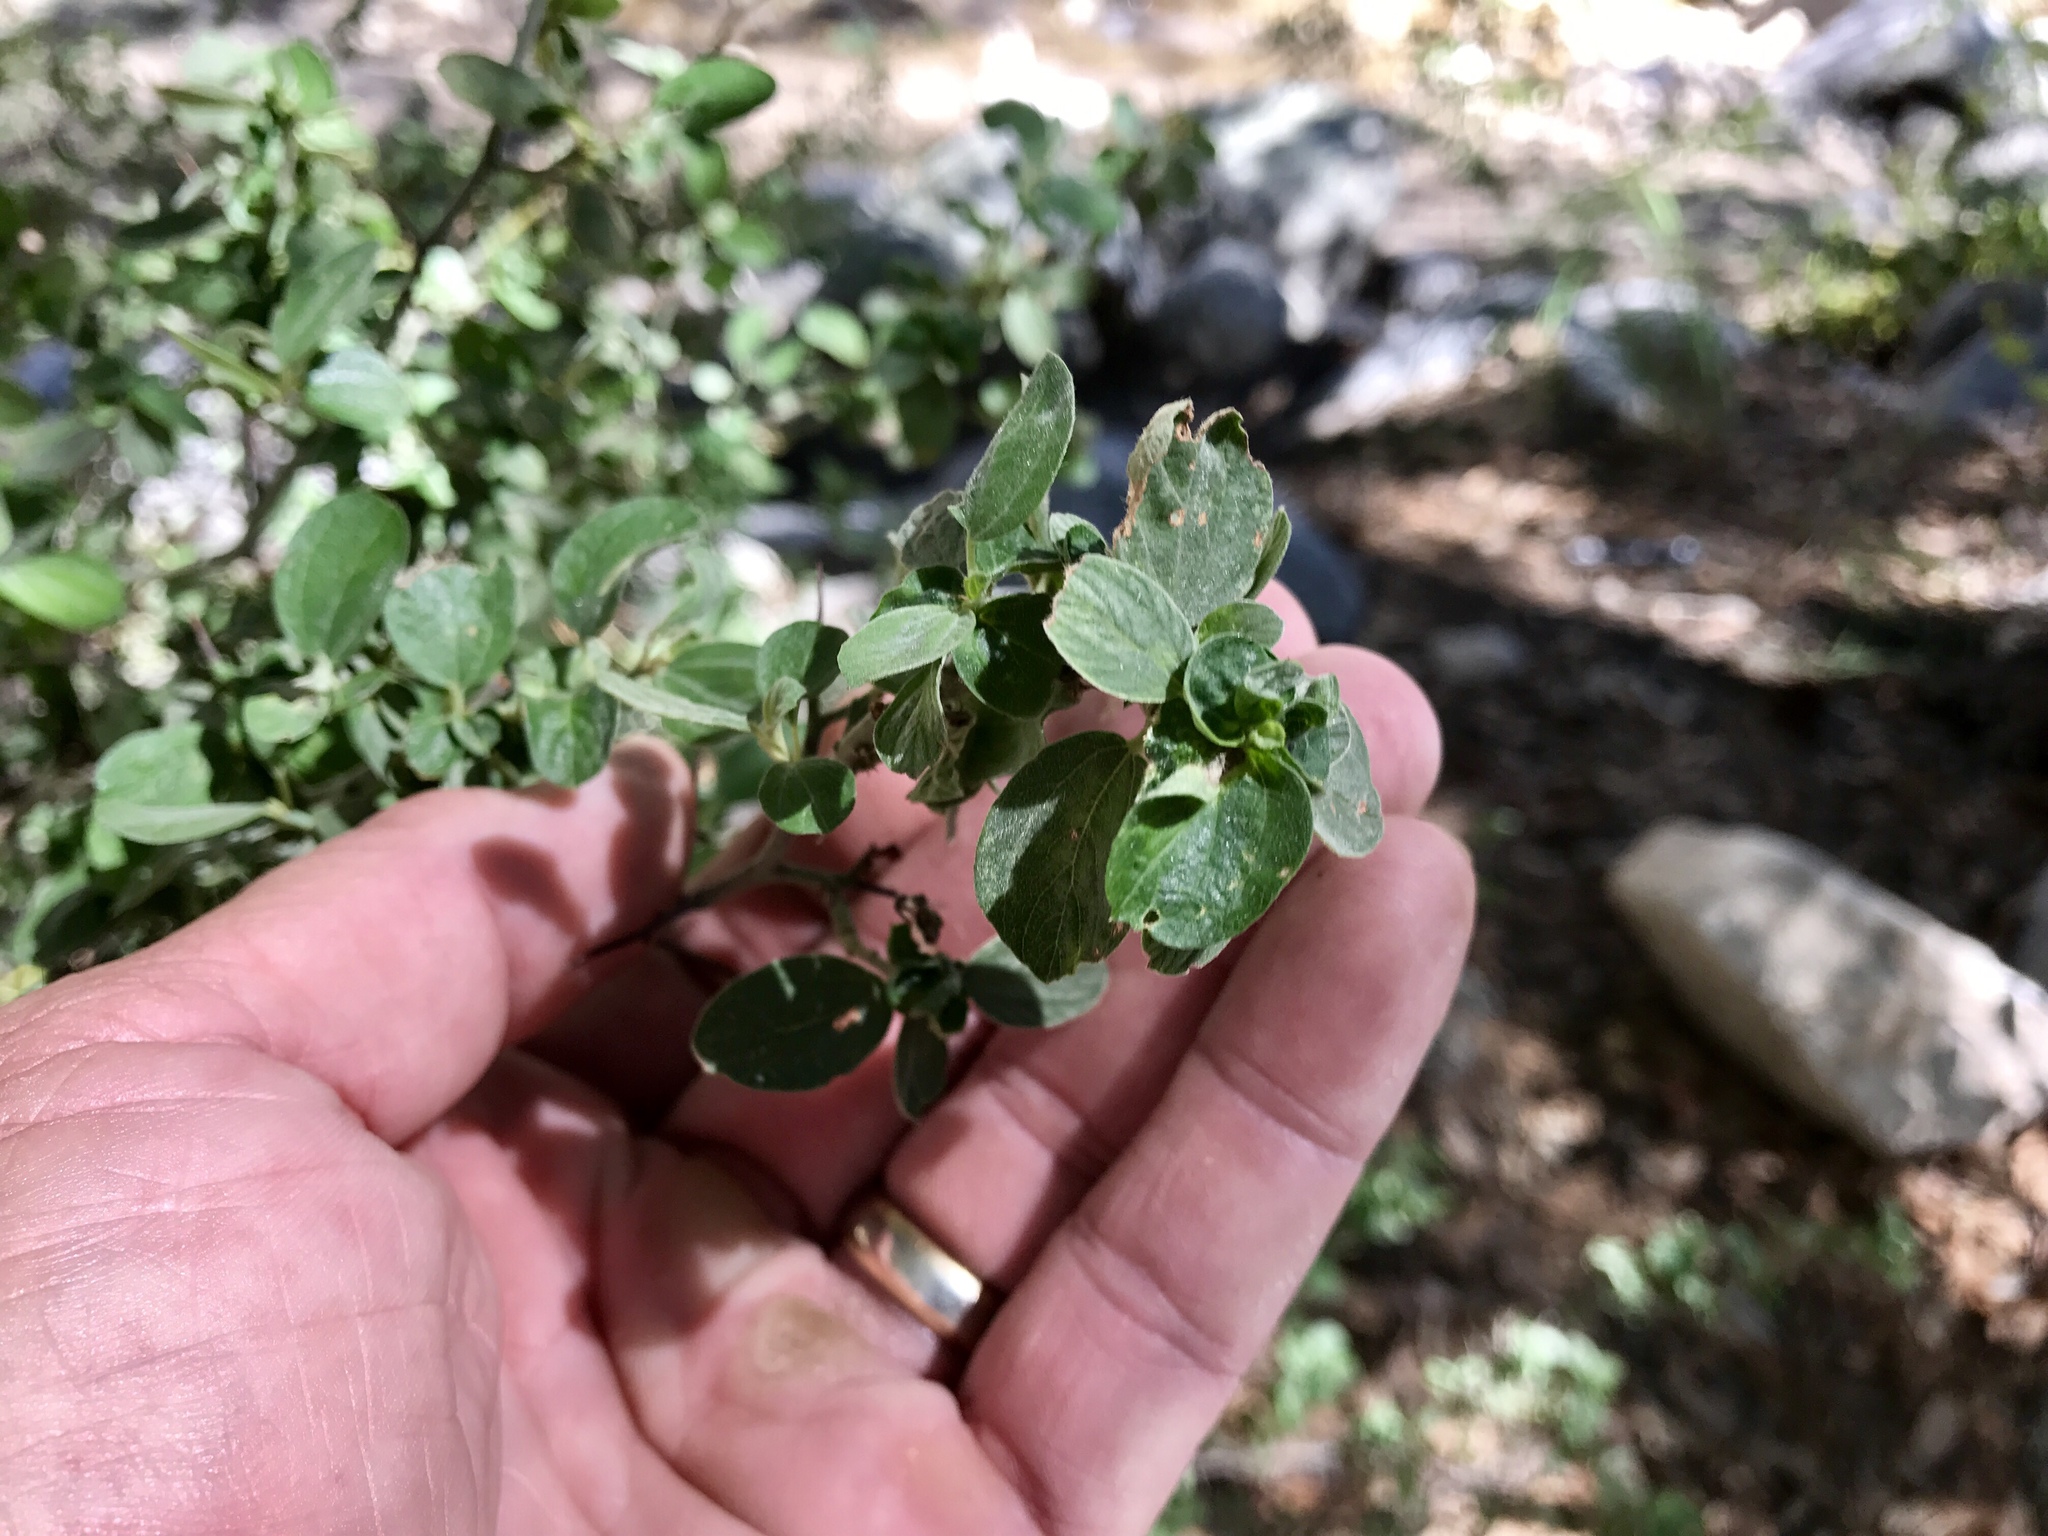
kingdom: Plantae
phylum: Tracheophyta
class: Magnoliopsida
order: Rosales
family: Rhamnaceae
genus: Ceanothus
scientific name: Ceanothus fendleri
